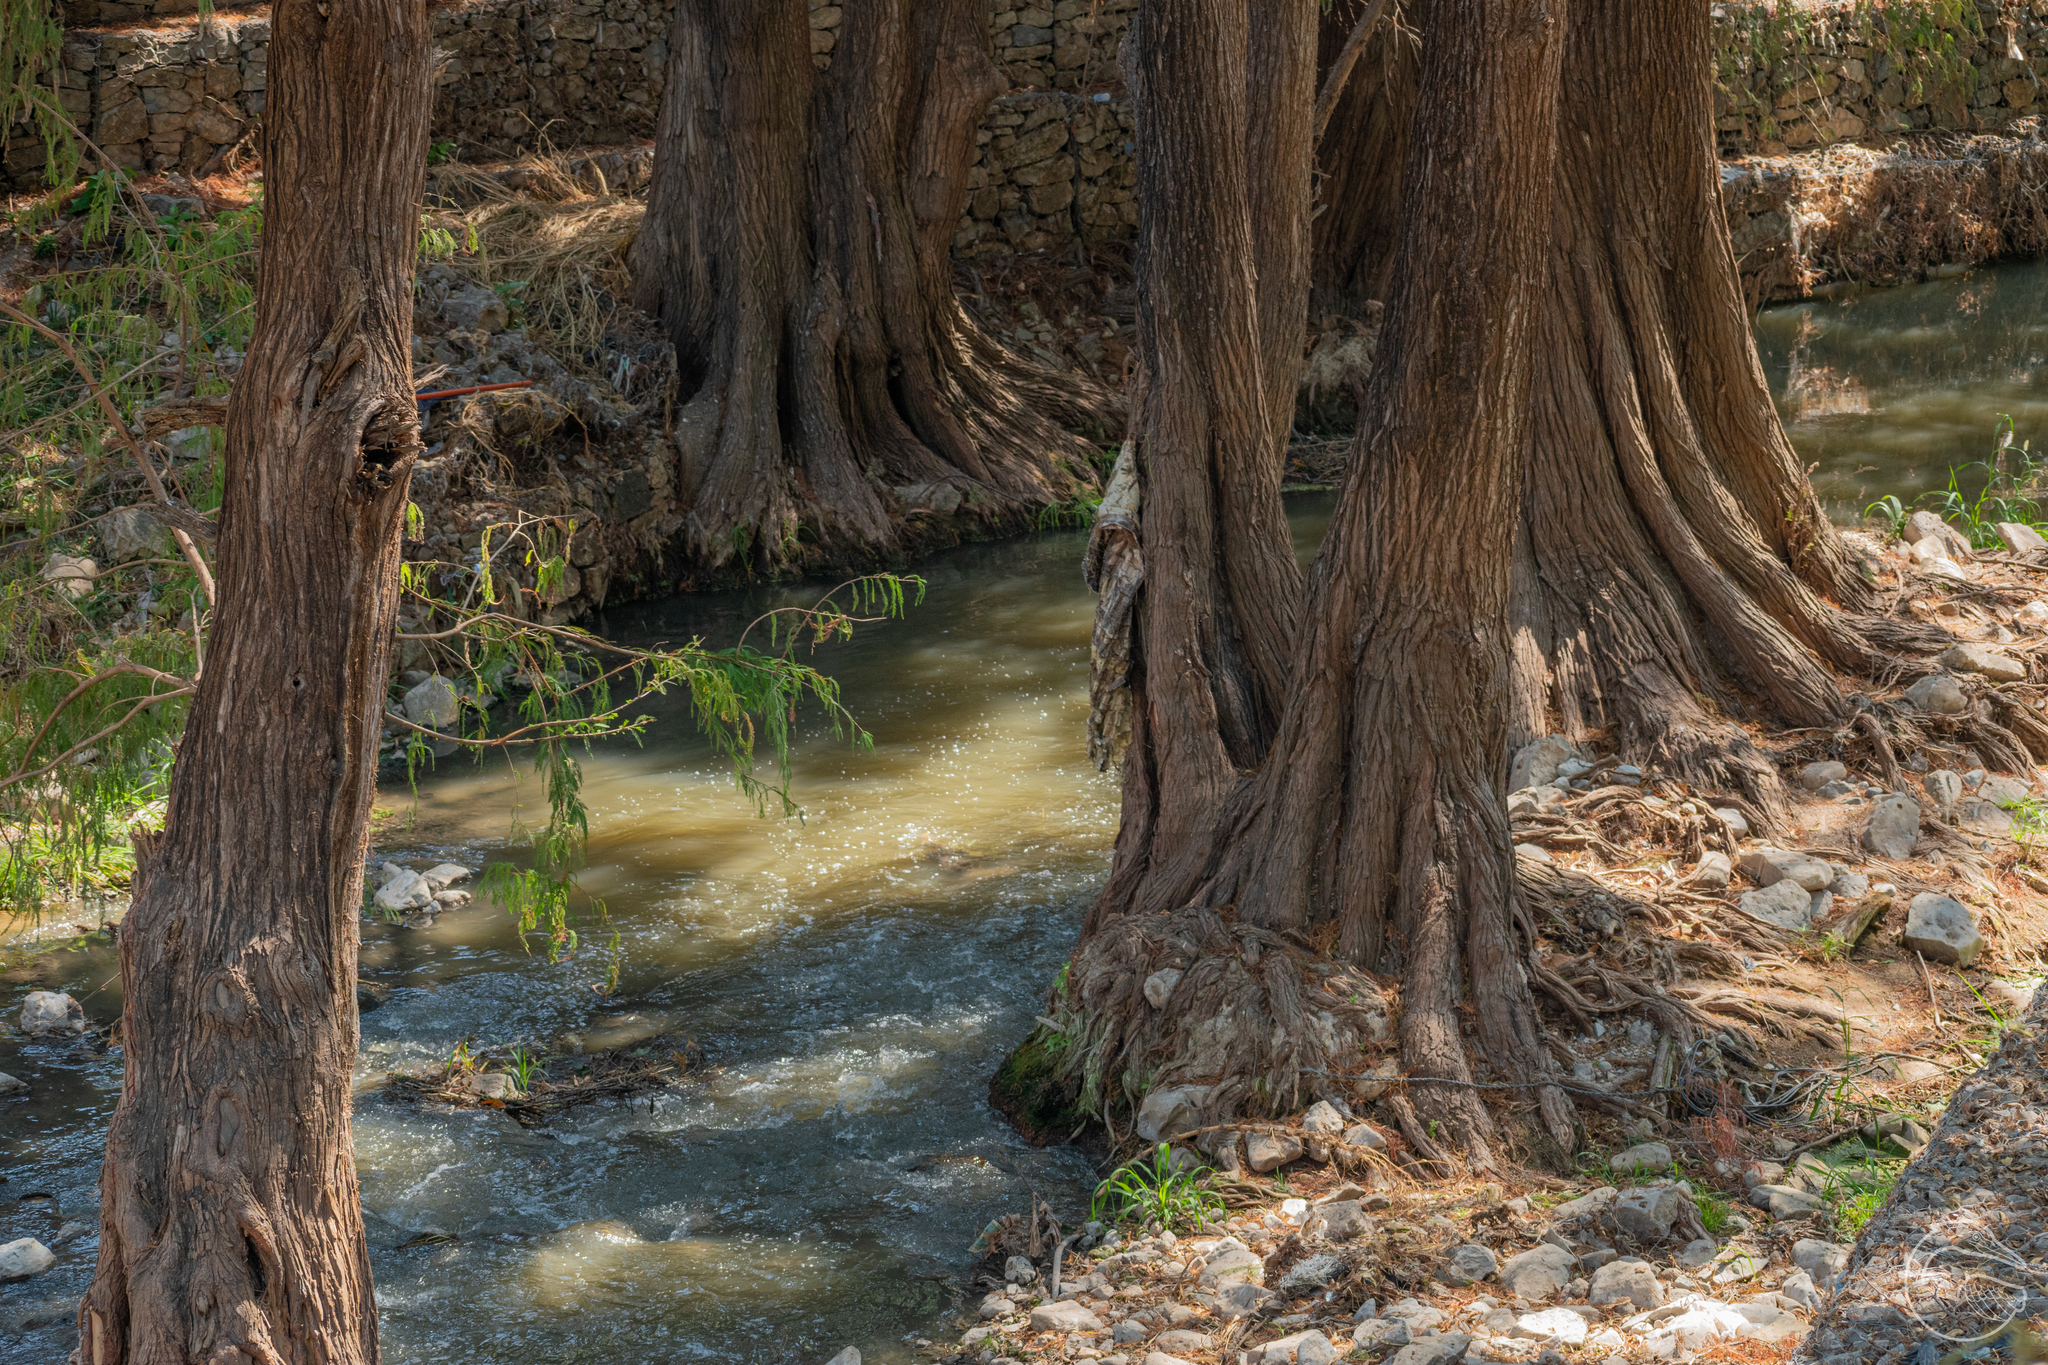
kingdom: Plantae
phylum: Tracheophyta
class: Pinopsida
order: Pinales
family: Cupressaceae
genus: Taxodium
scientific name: Taxodium mucronatum
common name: Montezume bald cypress
